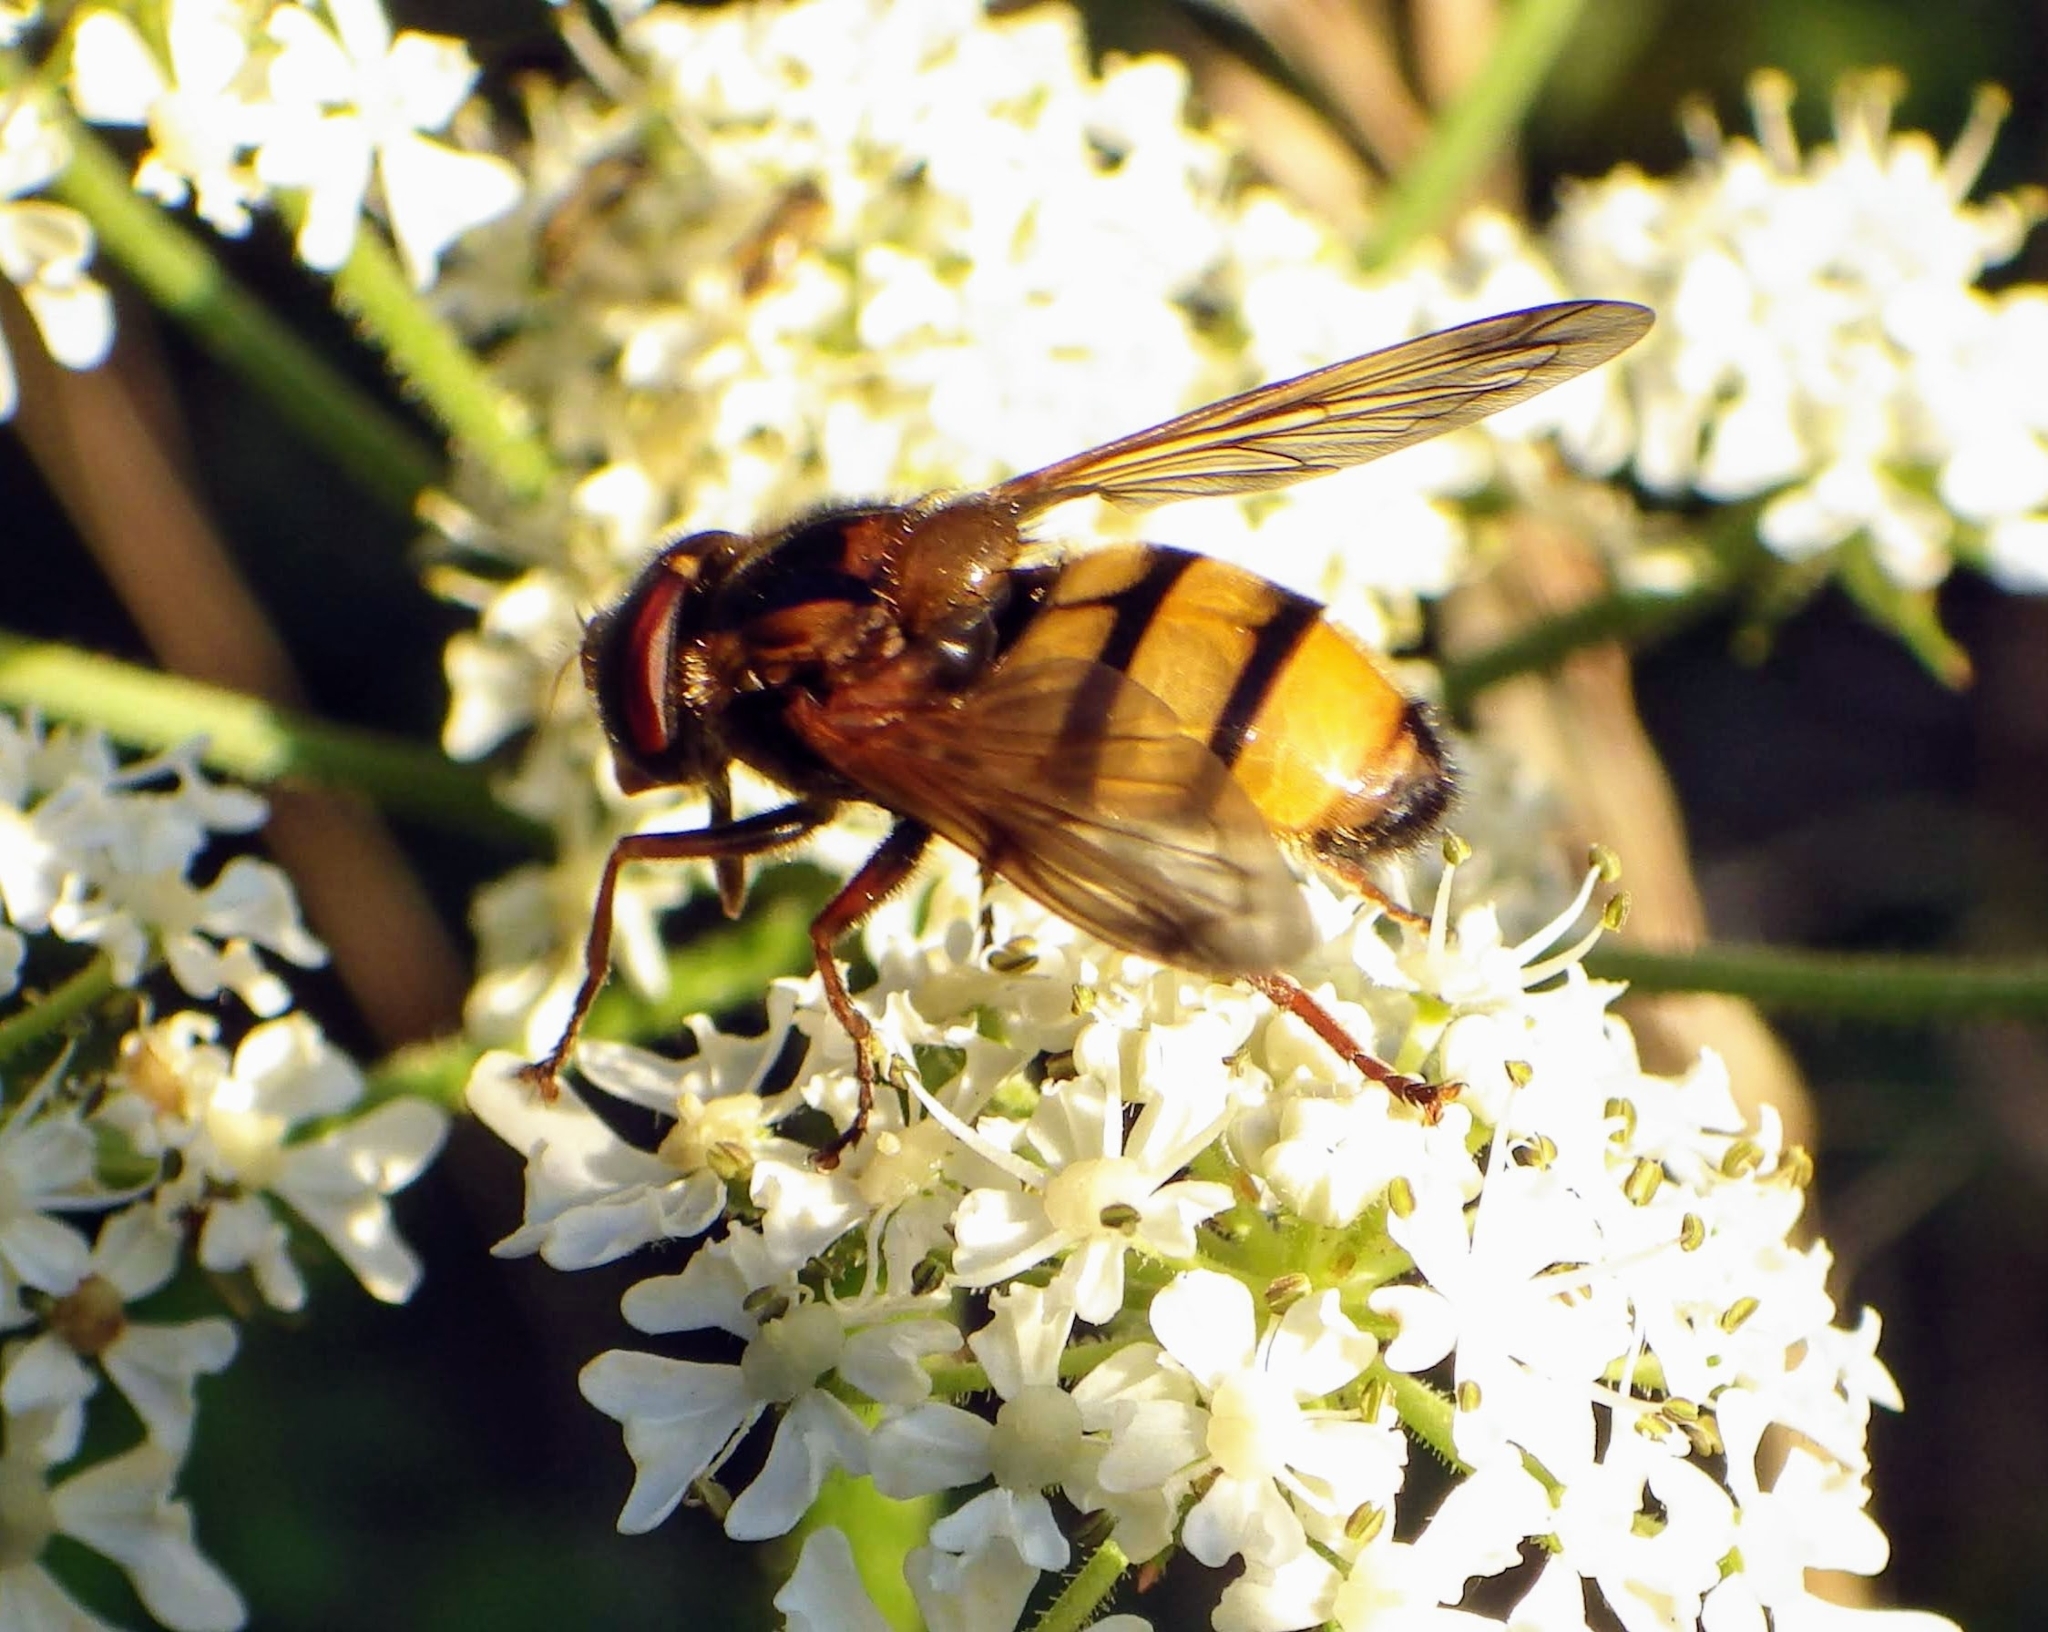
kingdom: Animalia
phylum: Arthropoda
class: Insecta
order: Diptera
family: Syrphidae
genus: Volucella
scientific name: Volucella inanis
